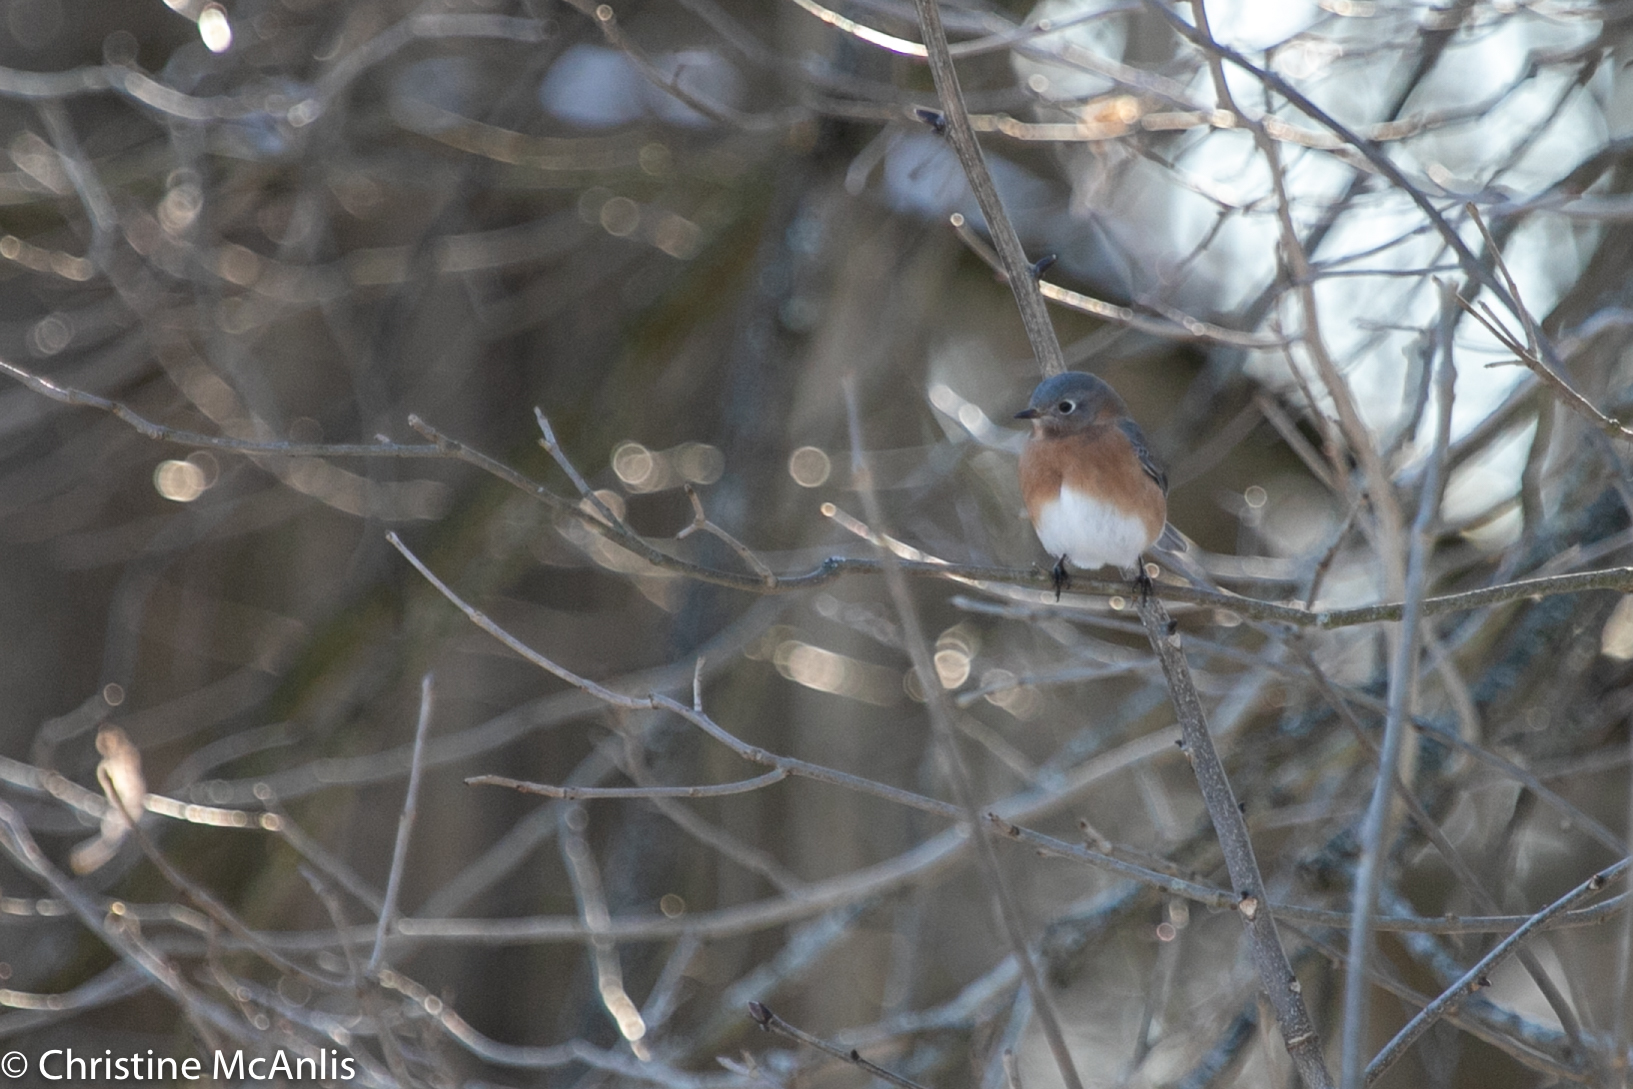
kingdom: Animalia
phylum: Chordata
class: Aves
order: Passeriformes
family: Turdidae
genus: Sialia
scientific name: Sialia sialis
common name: Eastern bluebird
